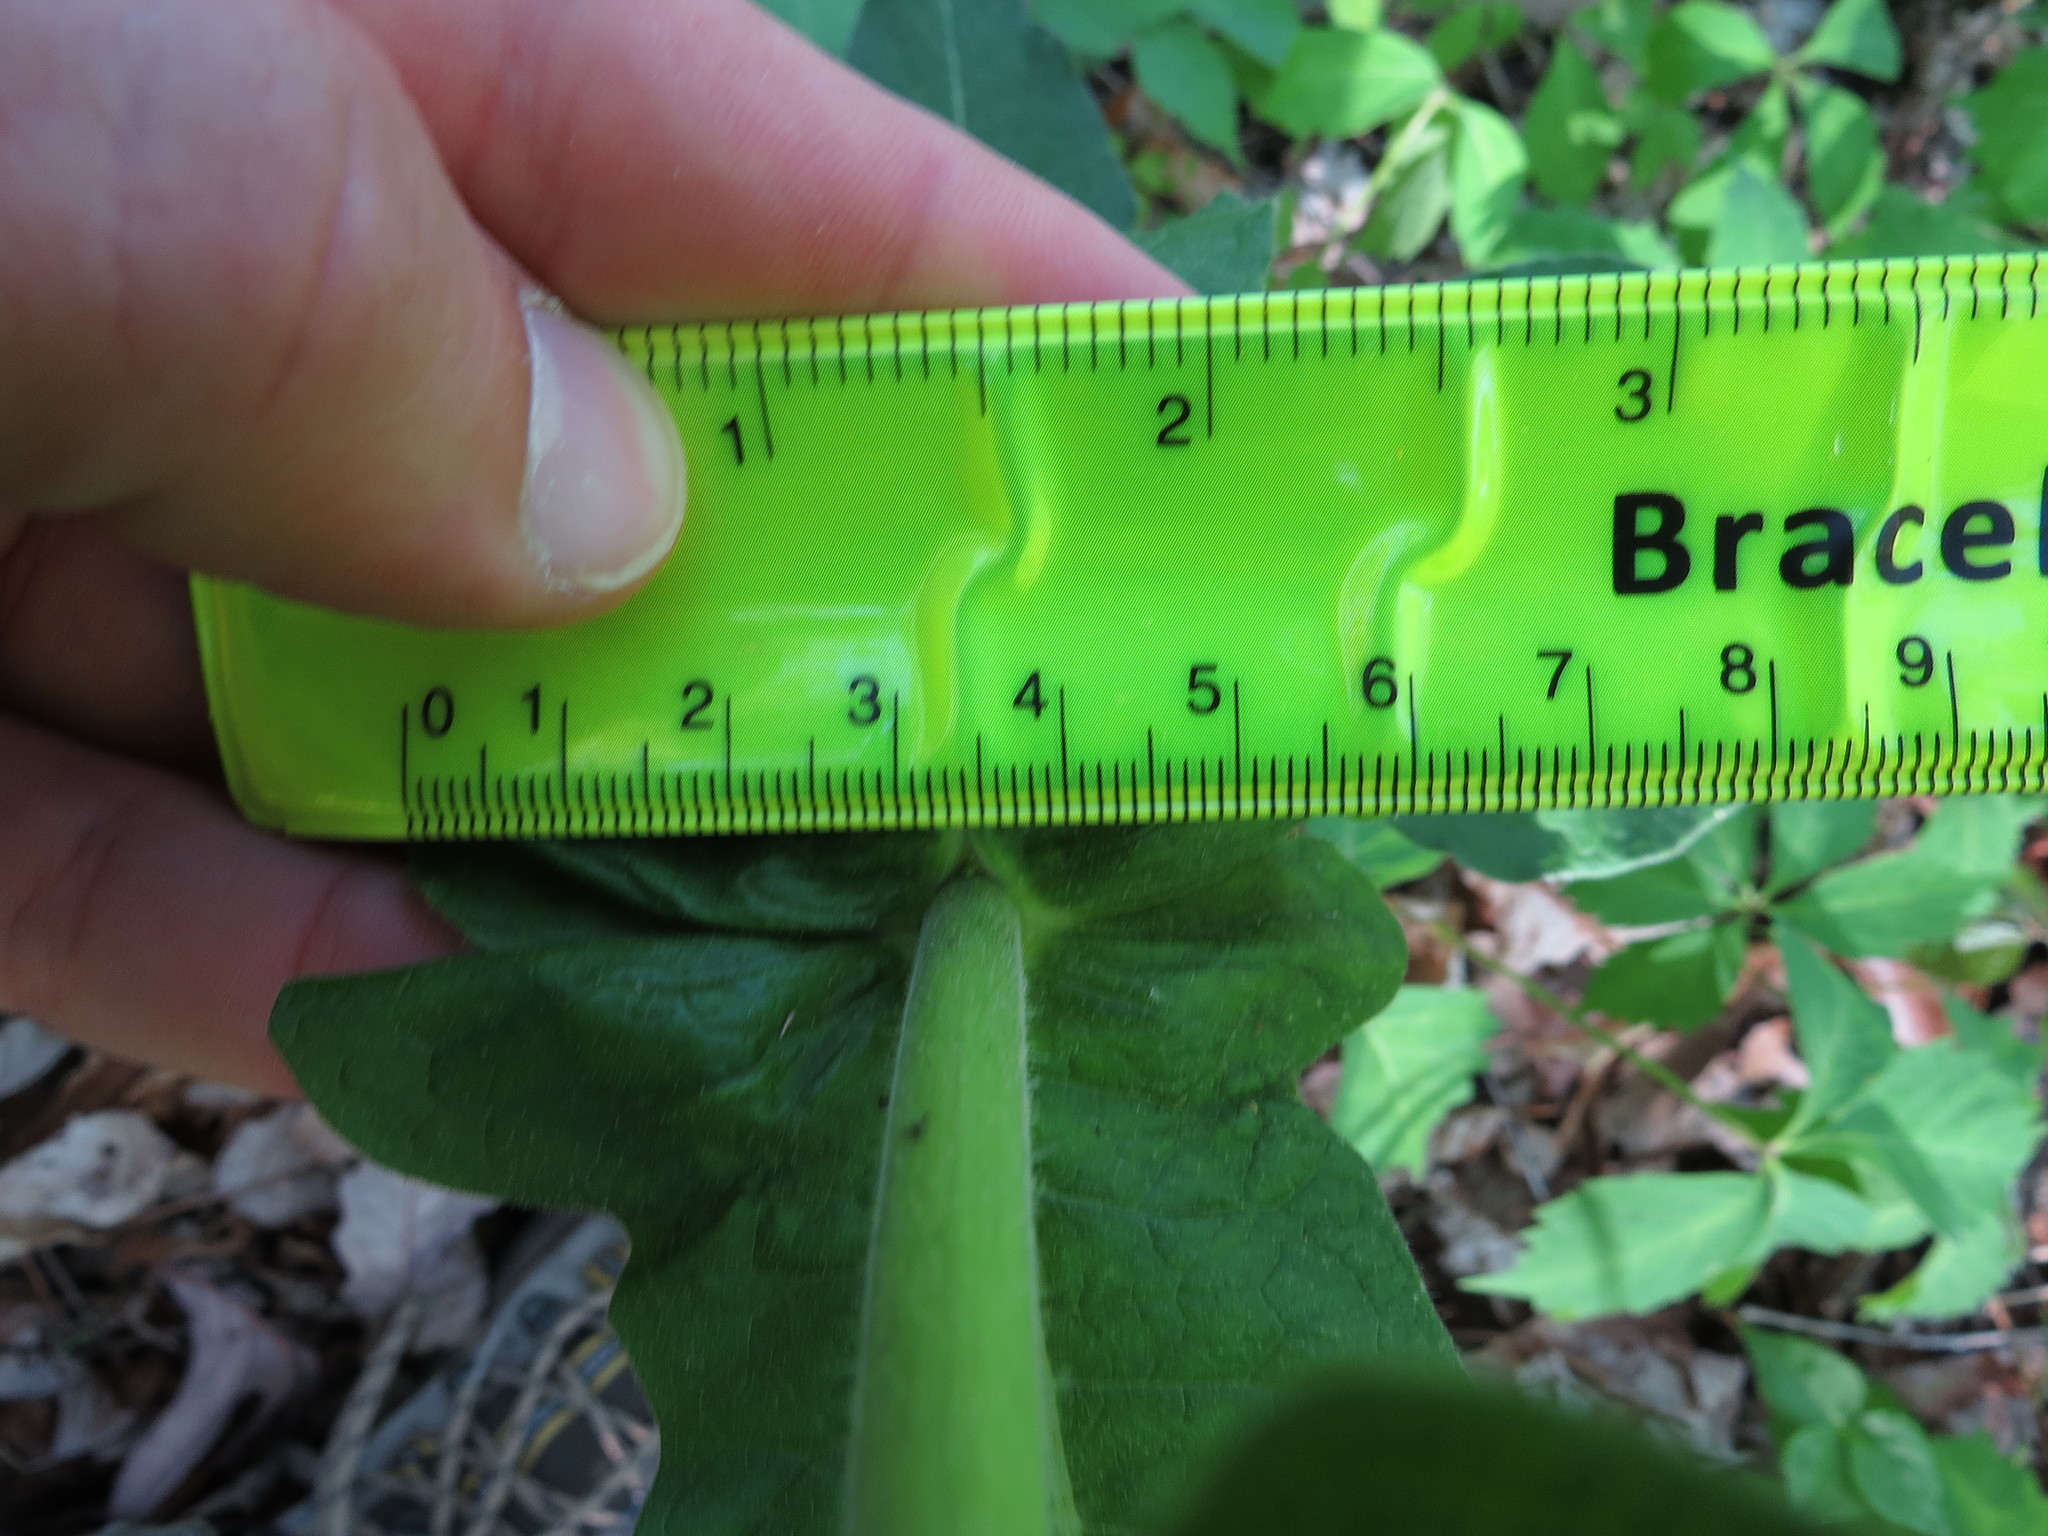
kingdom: Plantae
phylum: Tracheophyta
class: Magnoliopsida
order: Dipsacales
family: Caprifoliaceae
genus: Triosteum
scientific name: Triosteum perfoliatum
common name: Common horse-gentian
